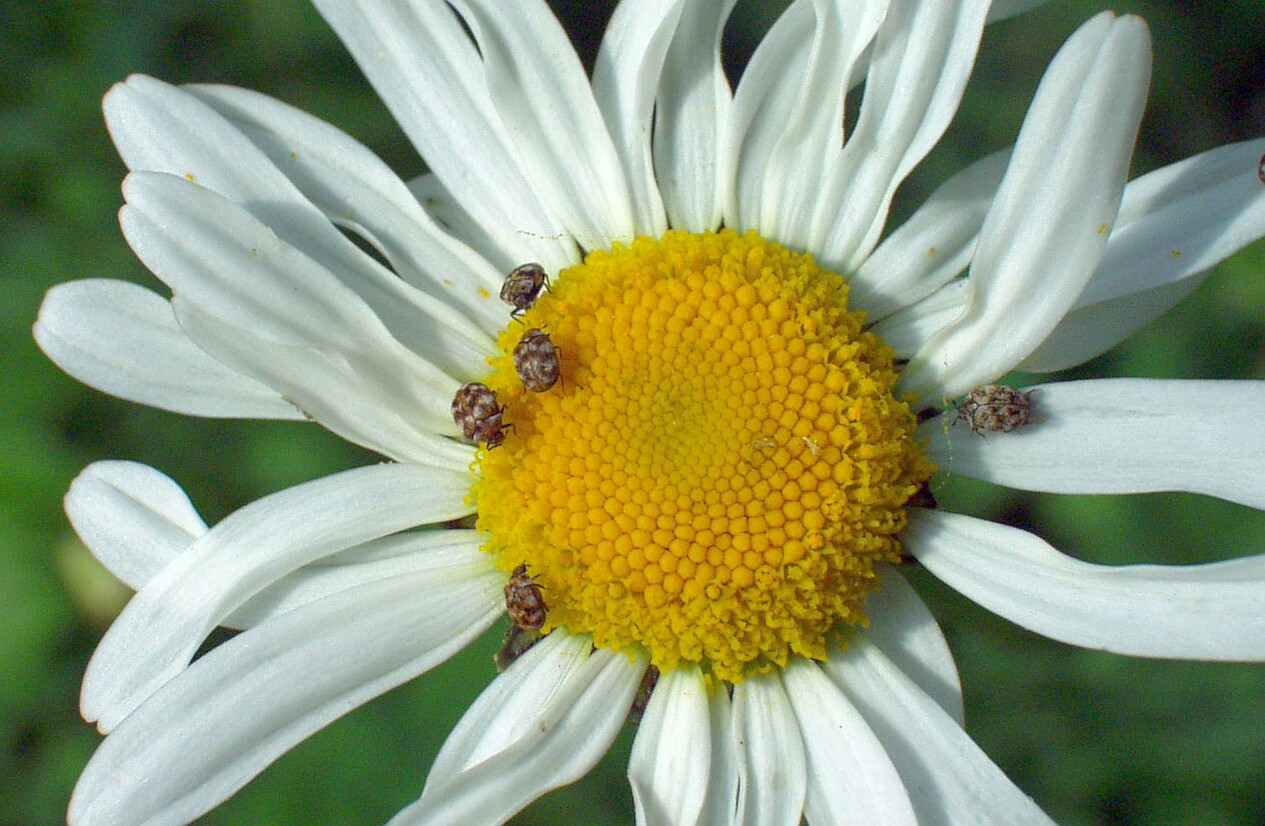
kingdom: Animalia
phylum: Arthropoda
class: Insecta
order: Coleoptera
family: Dermestidae
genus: Anthrenus
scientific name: Anthrenus verbasci
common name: Varied carpet beetle
